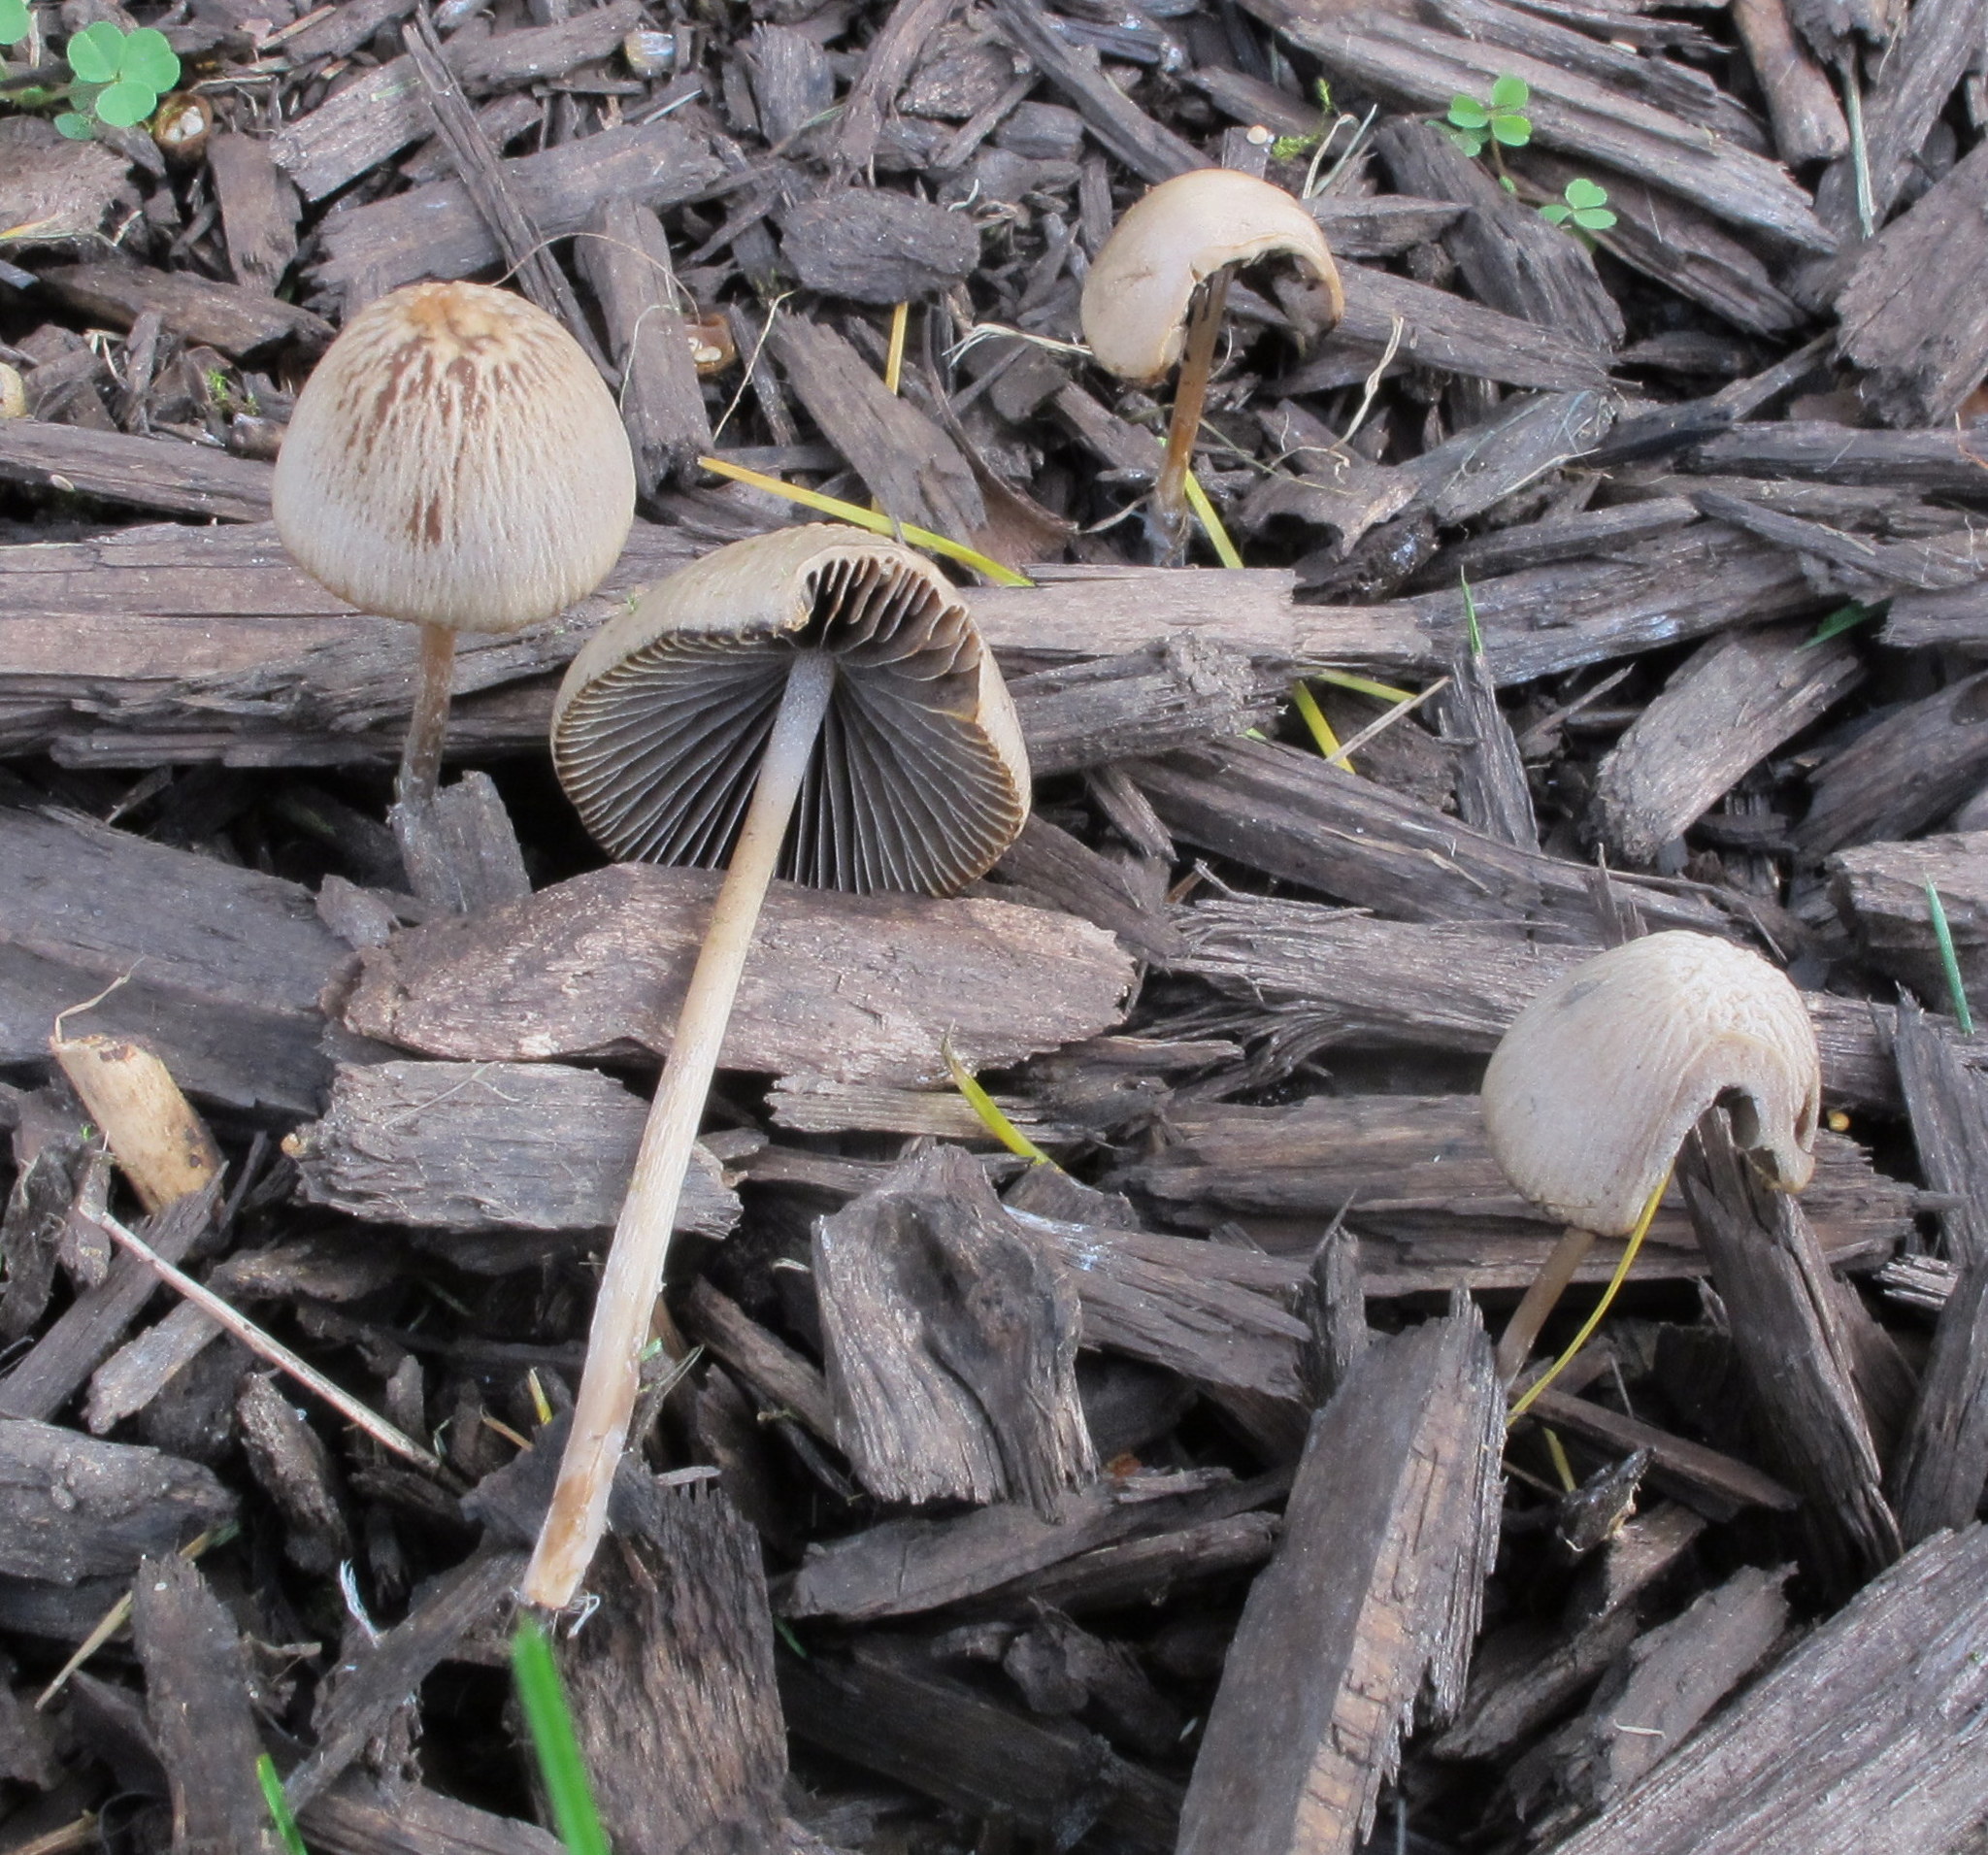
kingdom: Fungi
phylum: Basidiomycota
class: Agaricomycetes
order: Agaricales
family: Psathyrellaceae
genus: Psathyrella
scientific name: Psathyrella corrugis
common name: Red edge brittlestem
